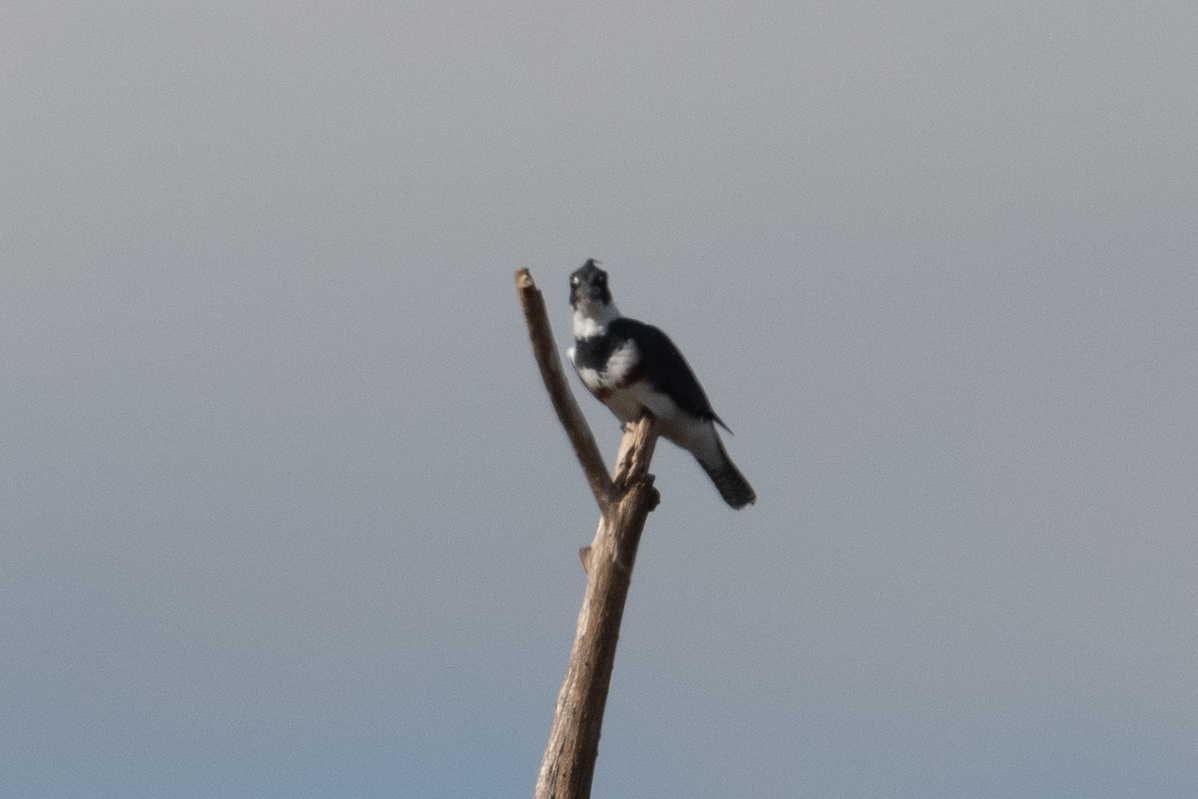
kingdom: Animalia
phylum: Chordata
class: Aves
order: Coraciiformes
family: Alcedinidae
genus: Megaceryle
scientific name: Megaceryle alcyon
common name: Belted kingfisher
